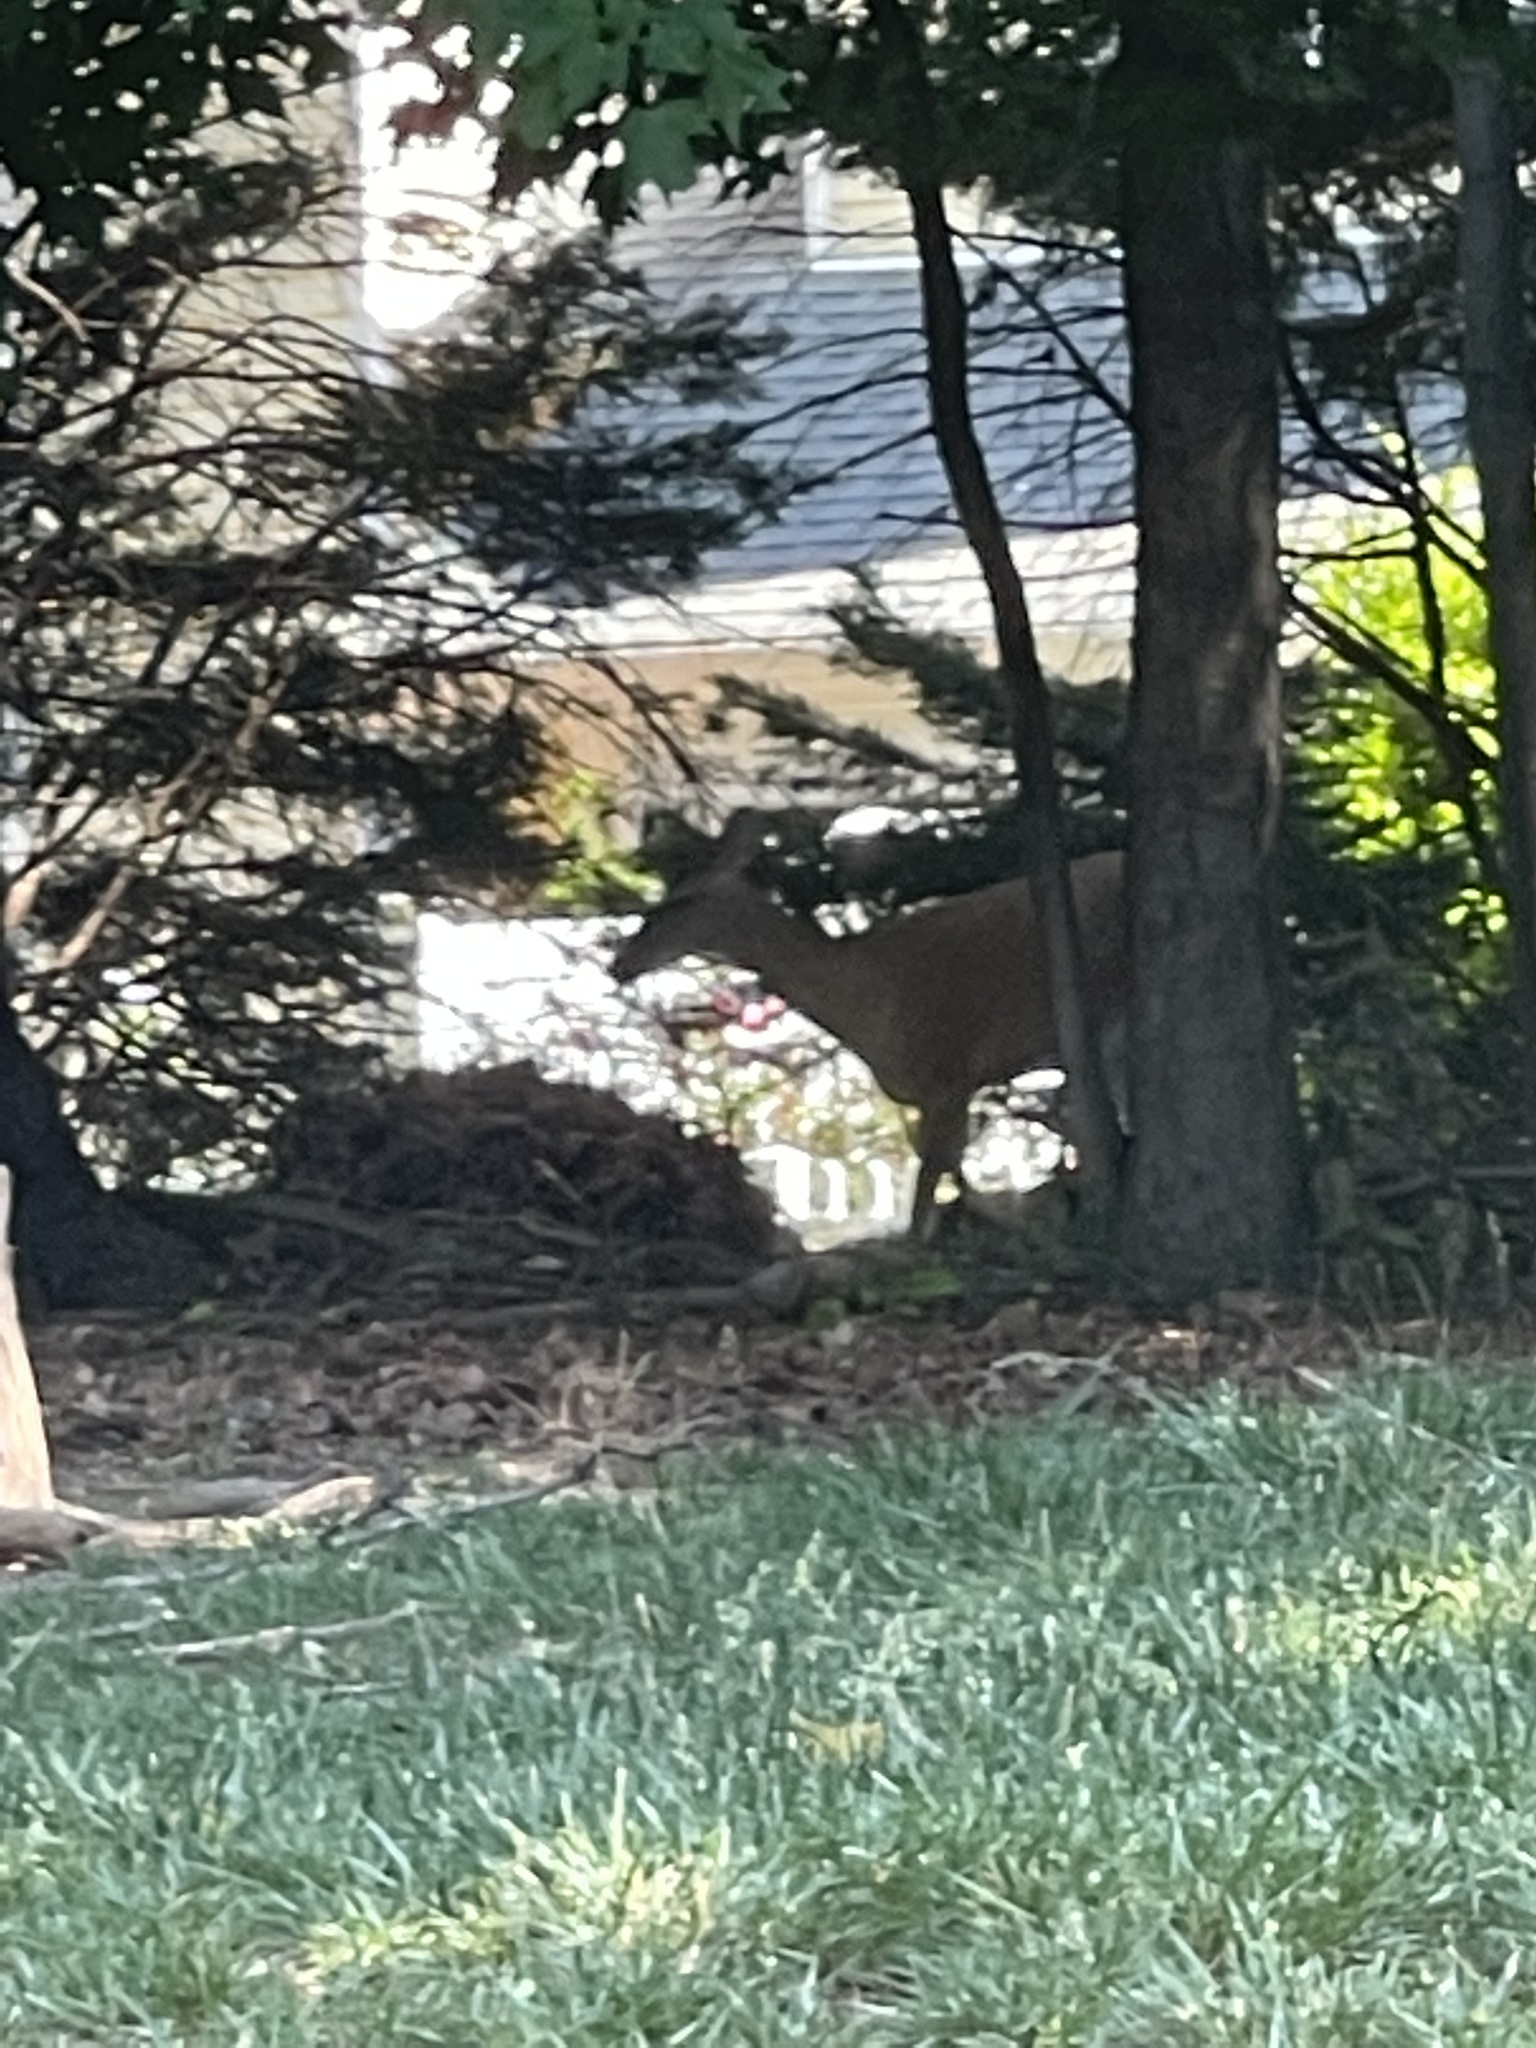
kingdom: Animalia
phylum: Chordata
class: Mammalia
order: Artiodactyla
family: Cervidae
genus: Odocoileus
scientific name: Odocoileus virginianus
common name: White-tailed deer
